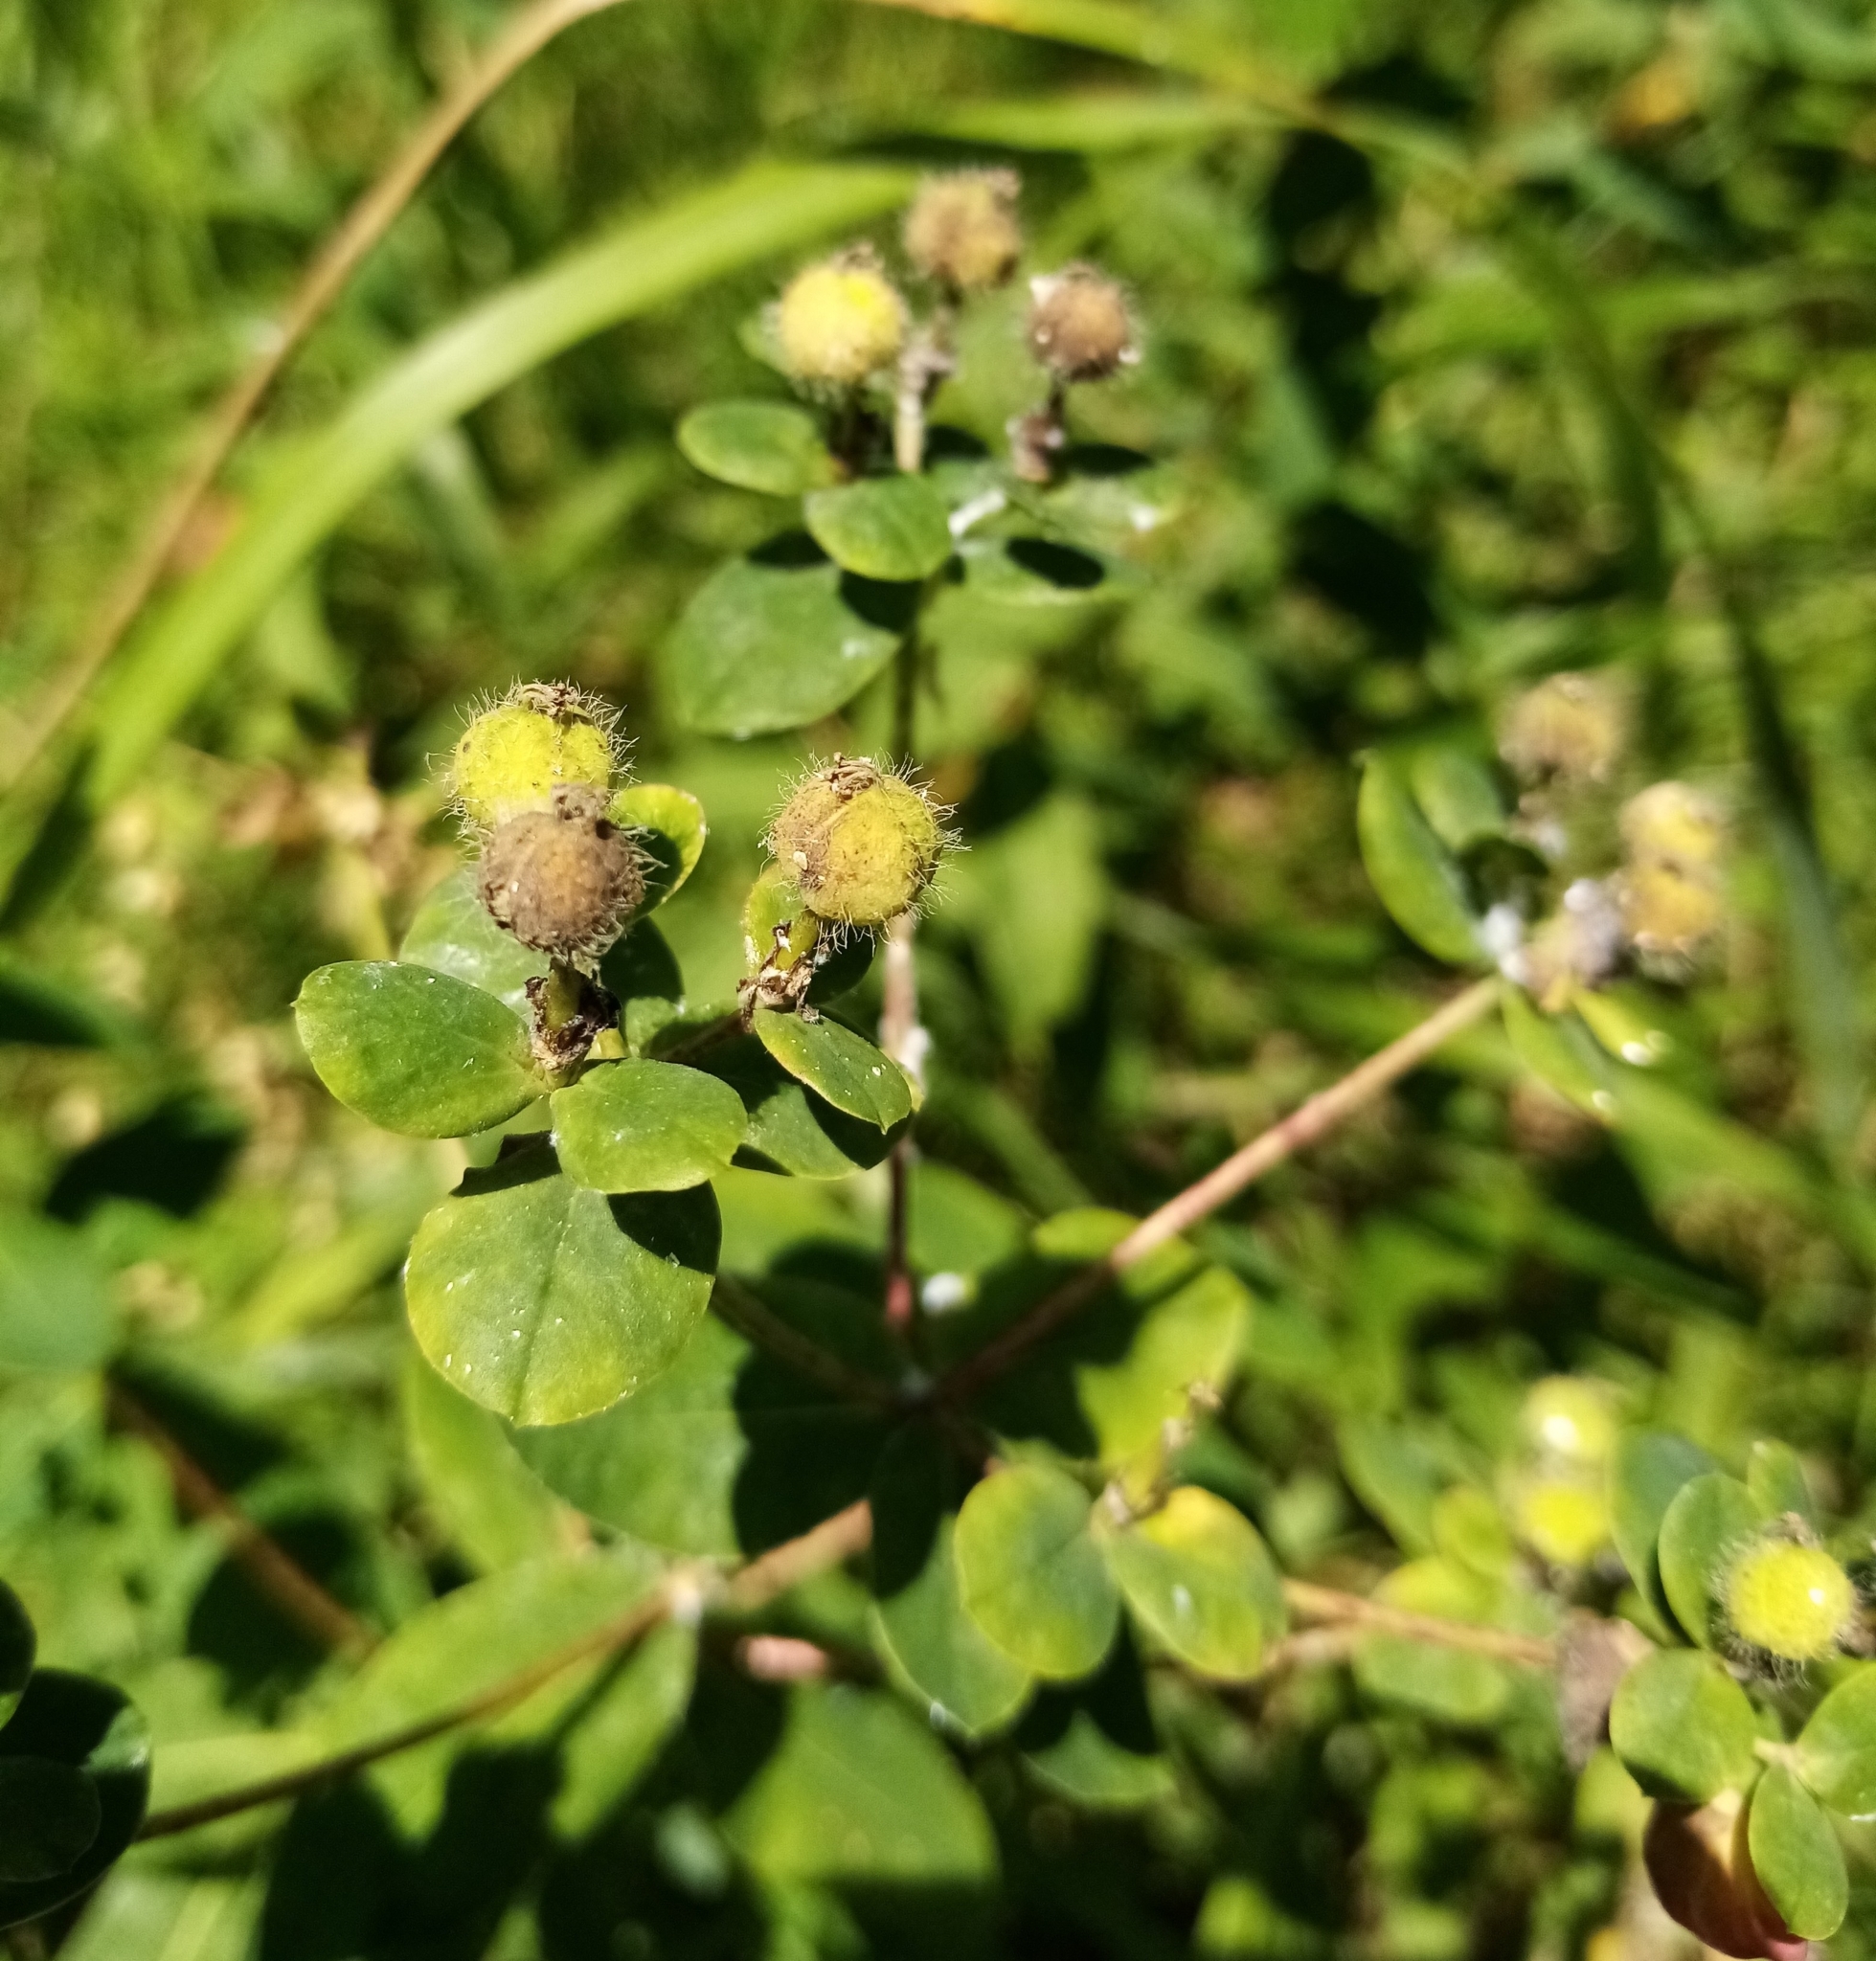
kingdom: Plantae
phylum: Tracheophyta
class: Magnoliopsida
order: Malpighiales
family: Euphorbiaceae
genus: Euphorbia
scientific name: Euphorbia tauricola
